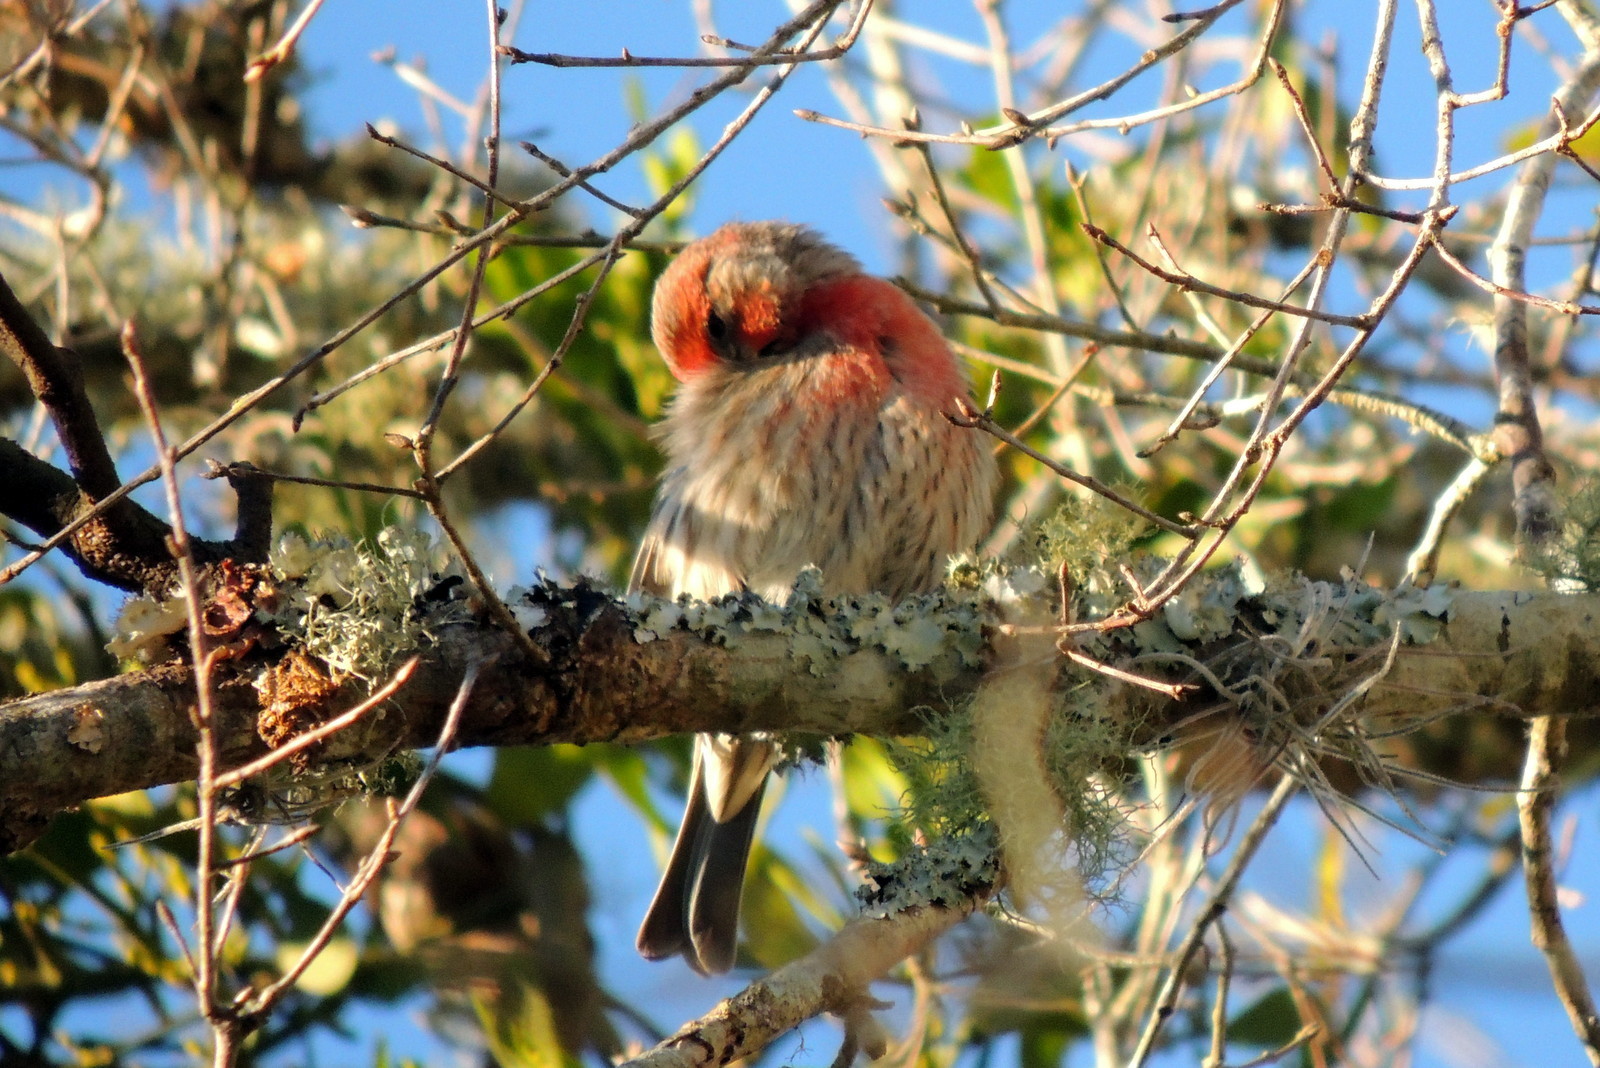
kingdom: Animalia
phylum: Chordata
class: Aves
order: Passeriformes
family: Fringillidae
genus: Haemorhous
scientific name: Haemorhous mexicanus
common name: House finch
